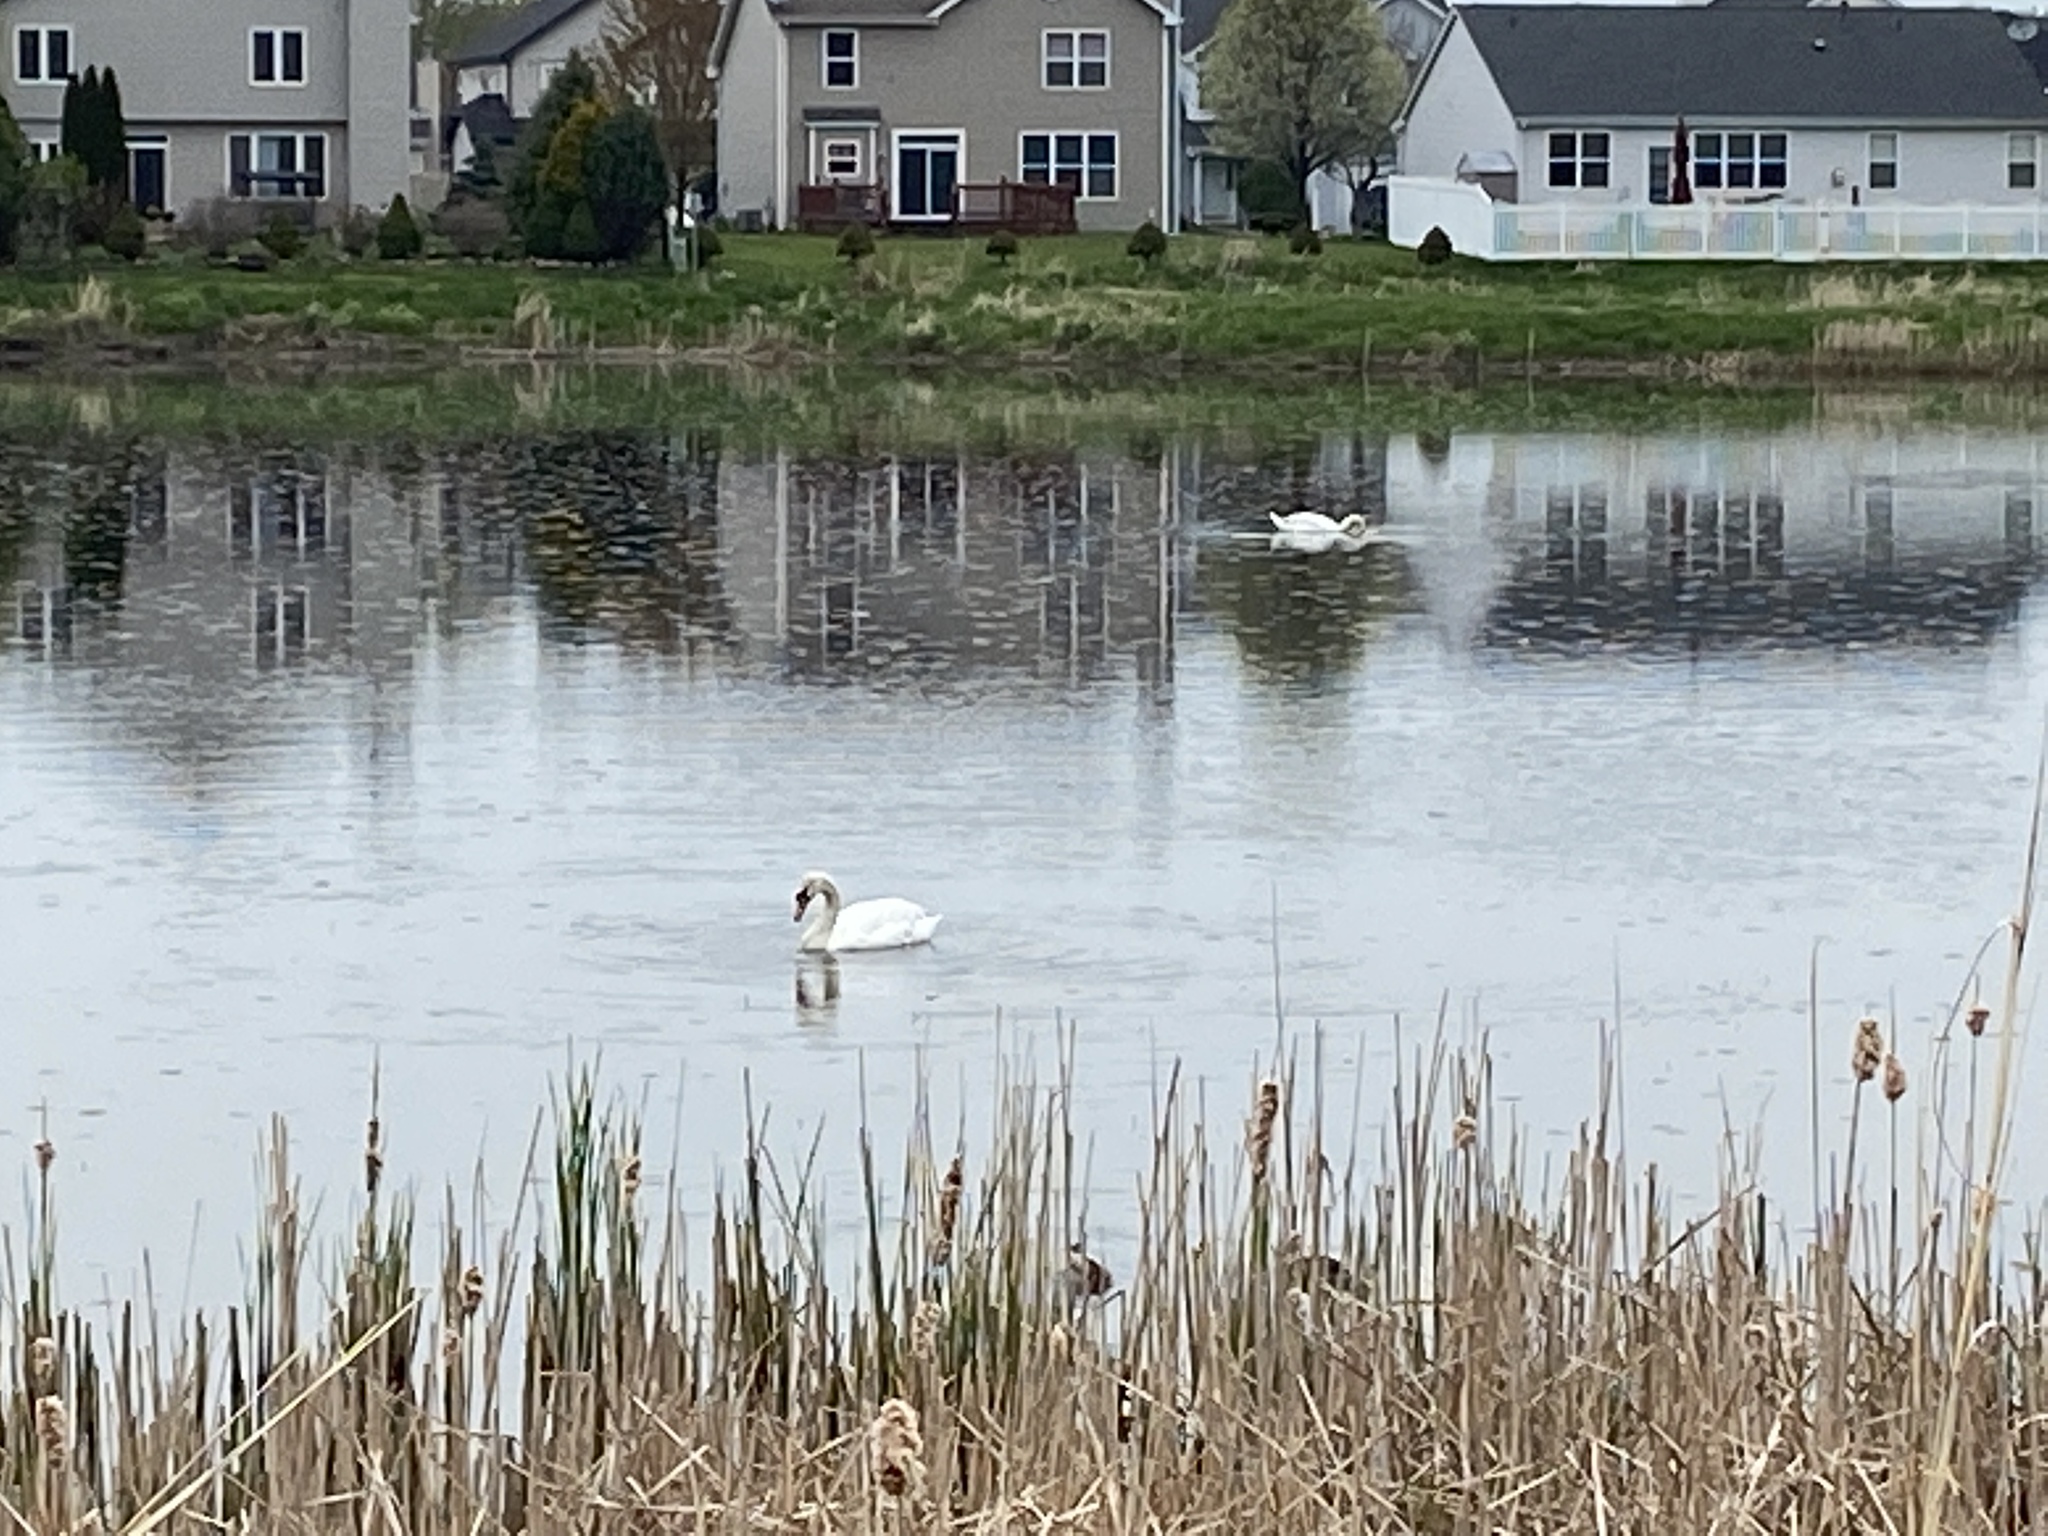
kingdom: Animalia
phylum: Chordata
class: Aves
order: Anseriformes
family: Anatidae
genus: Cygnus
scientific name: Cygnus olor
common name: Mute swan
